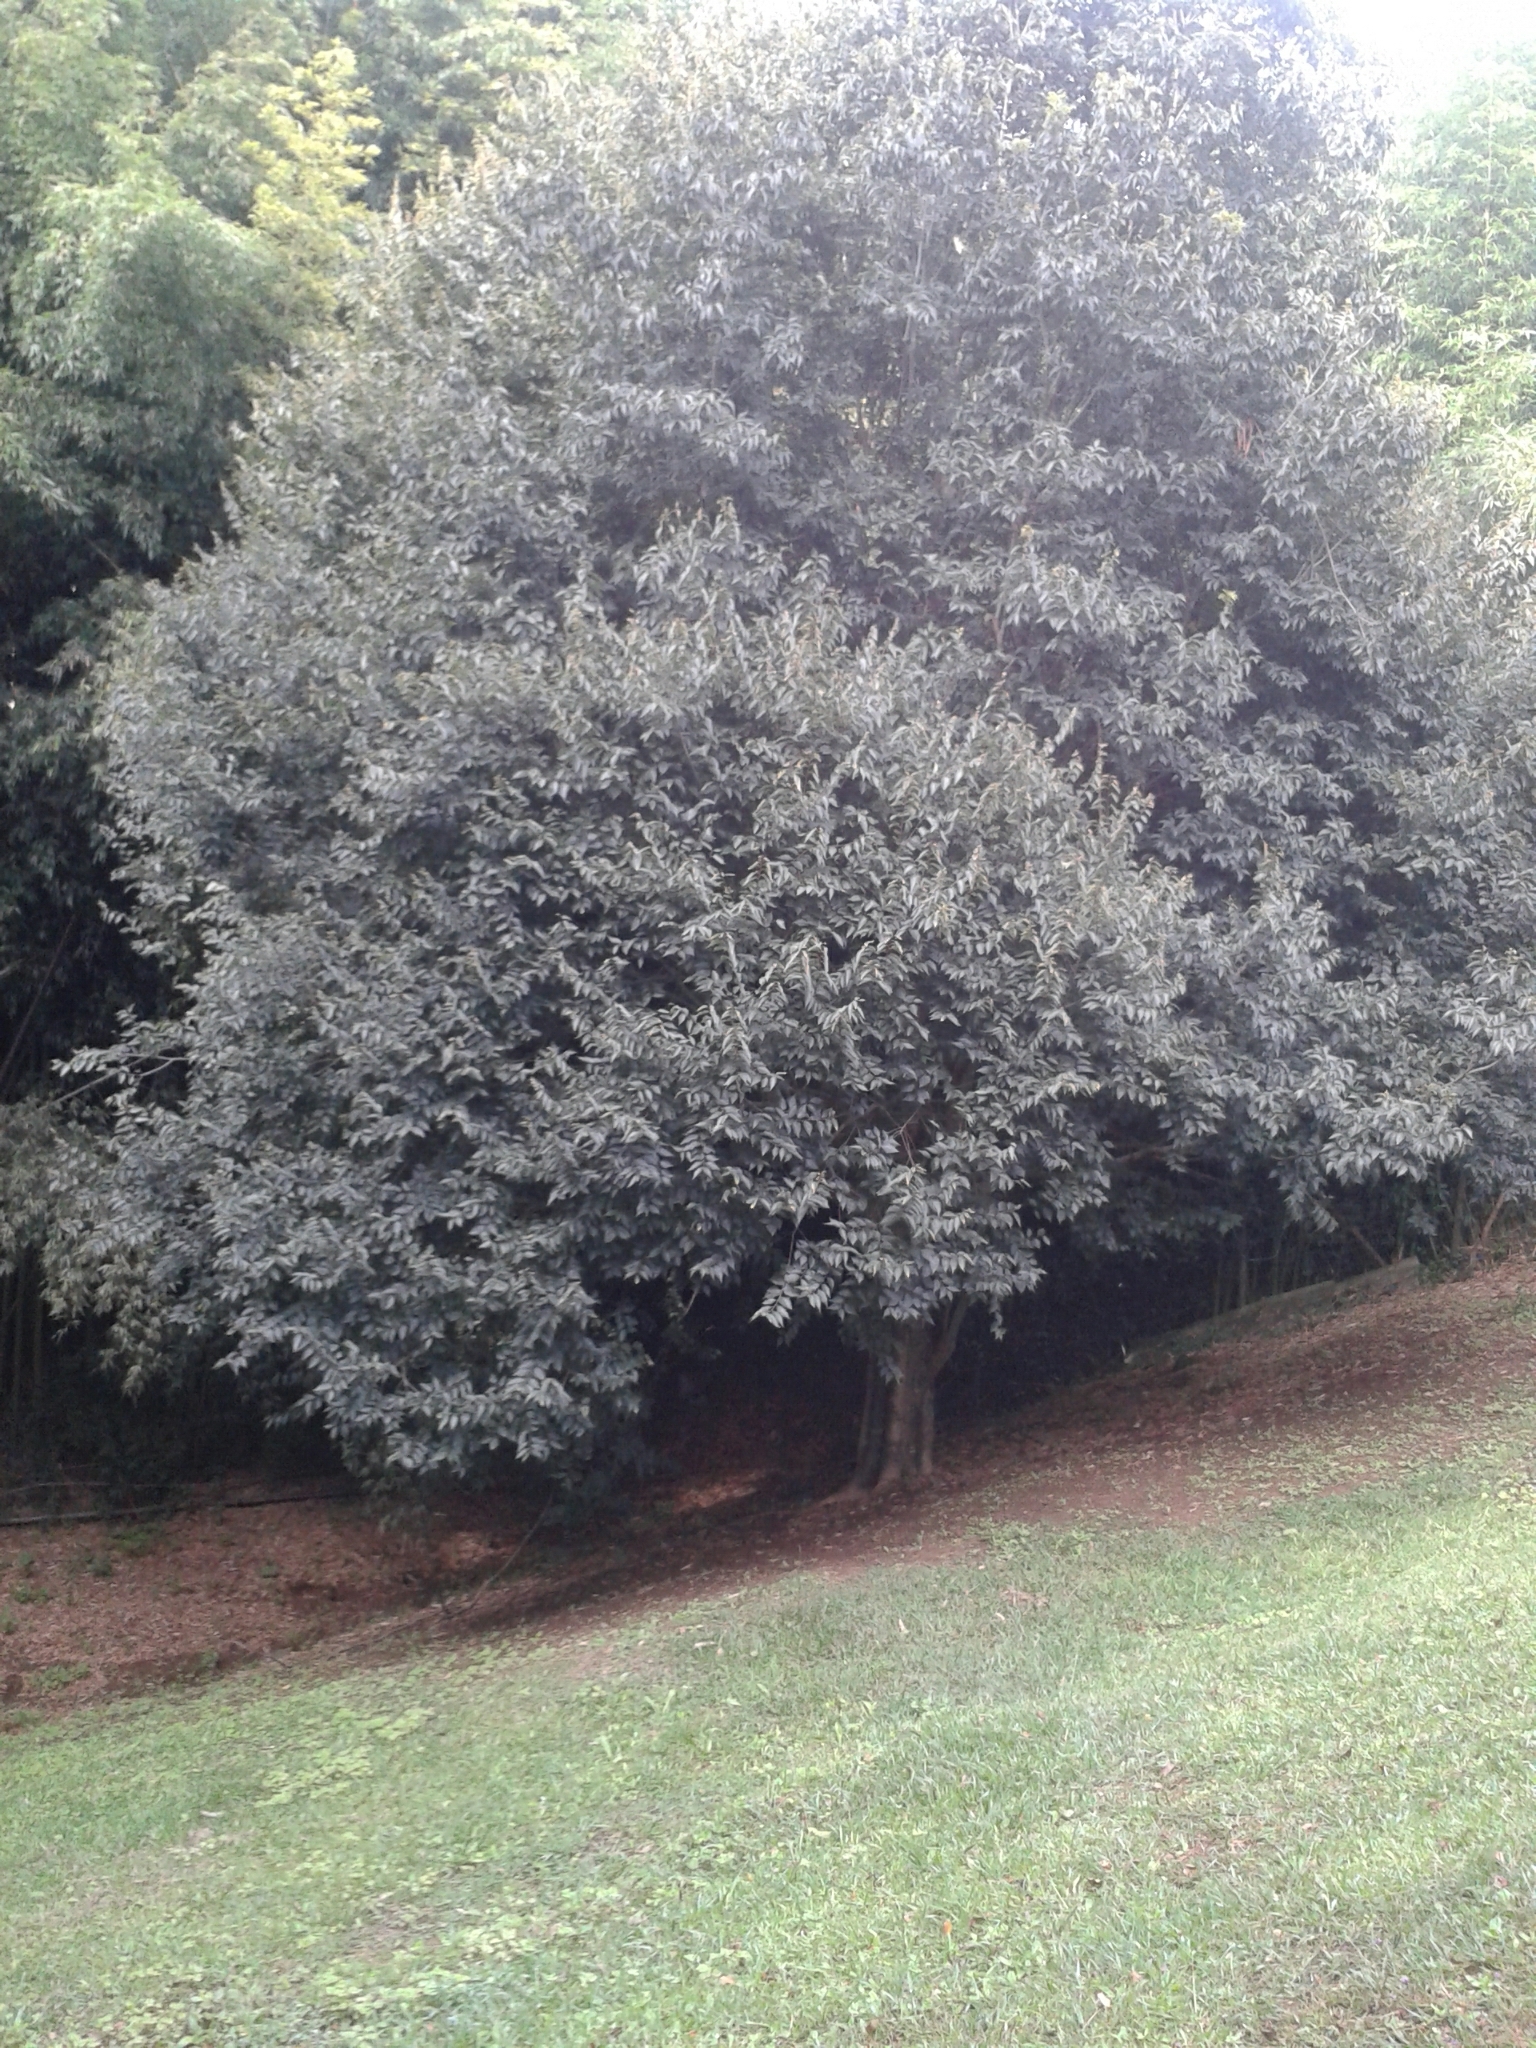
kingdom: Plantae
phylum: Tracheophyta
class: Magnoliopsida
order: Rosales
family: Cannabaceae
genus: Celtis
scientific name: Celtis australis
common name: European hackberry
